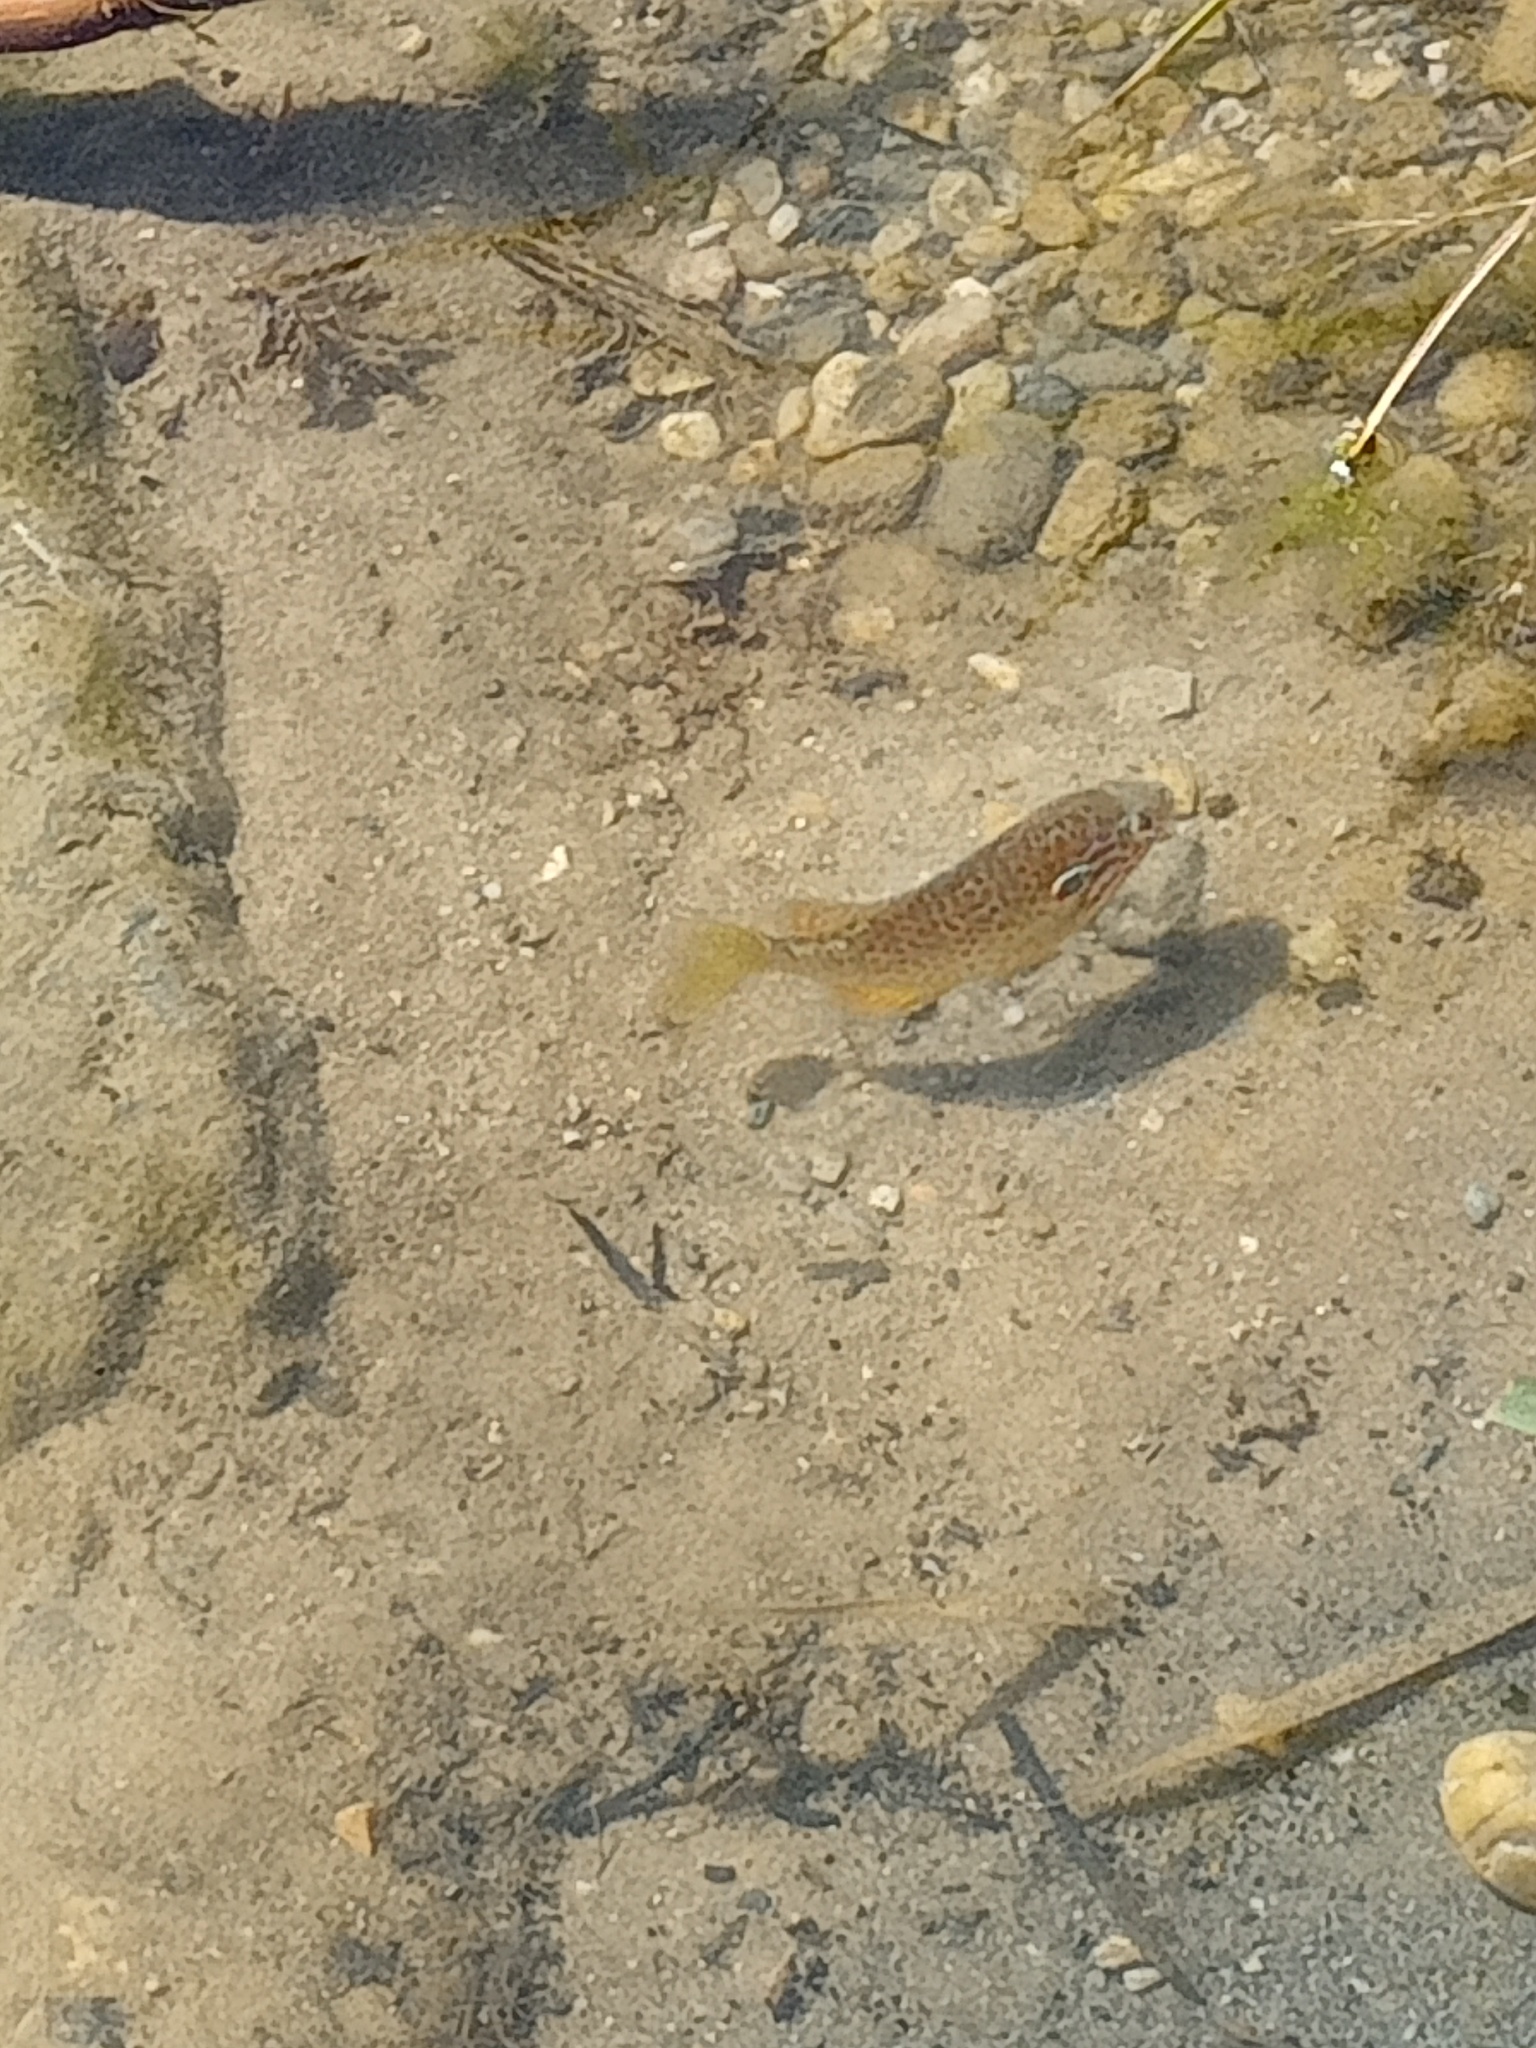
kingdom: Animalia
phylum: Chordata
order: Perciformes
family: Centrarchidae
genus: Lepomis
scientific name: Lepomis gibbosus
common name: Pumpkinseed
